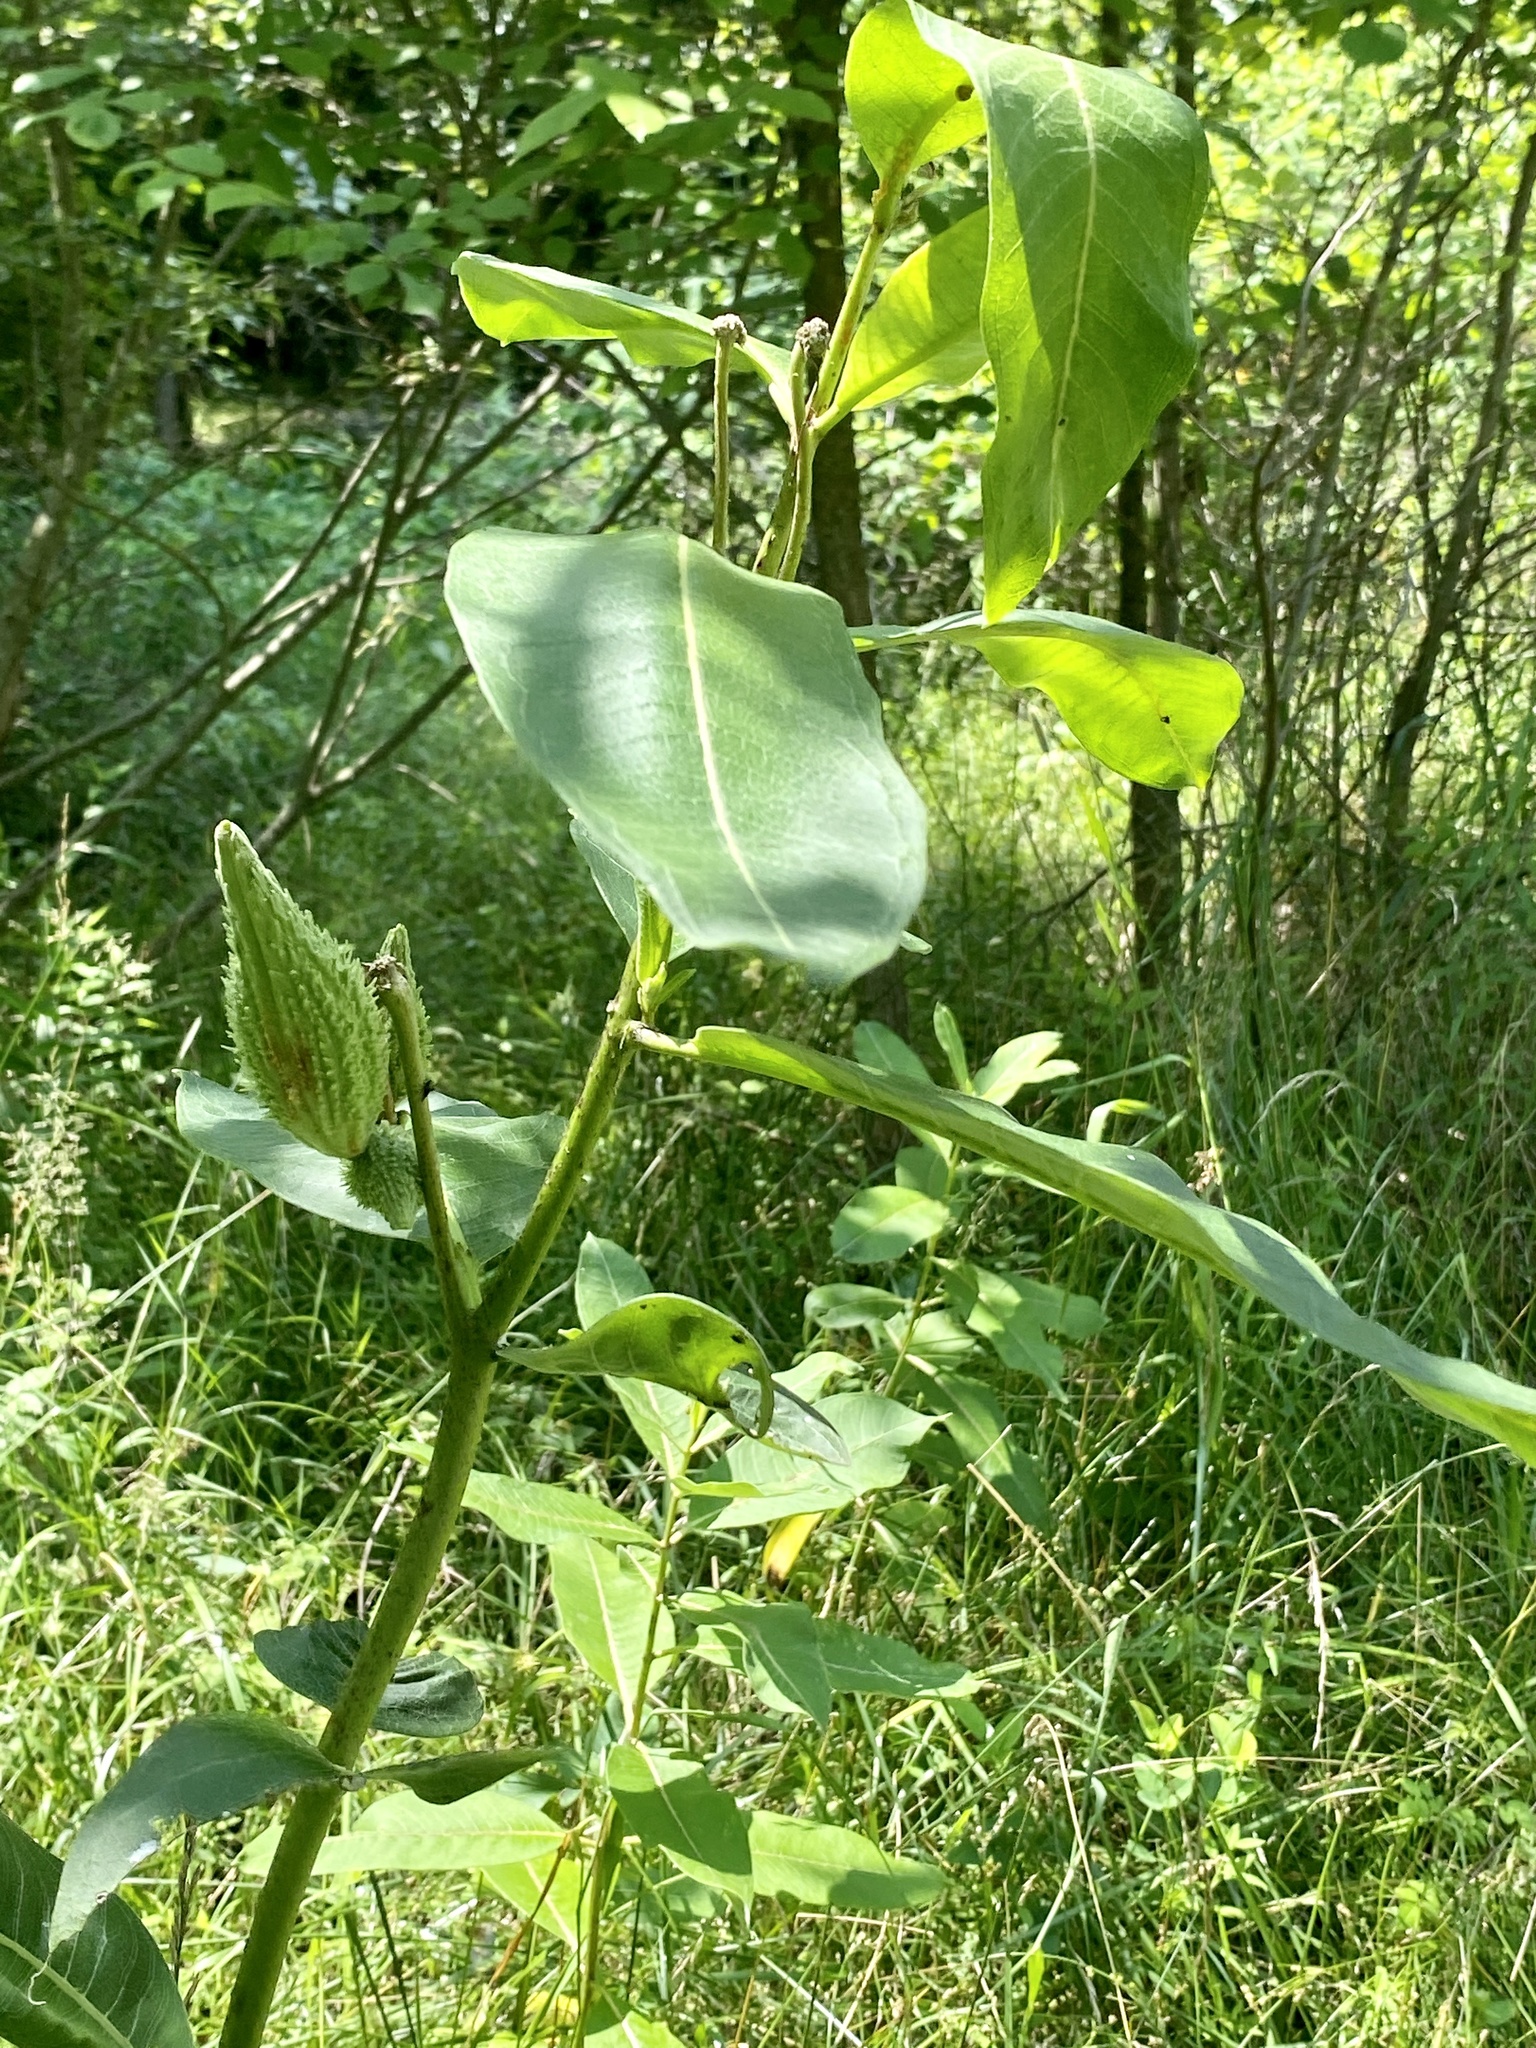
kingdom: Plantae
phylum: Tracheophyta
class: Magnoliopsida
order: Gentianales
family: Apocynaceae
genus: Asclepias
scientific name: Asclepias syriaca
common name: Common milkweed
